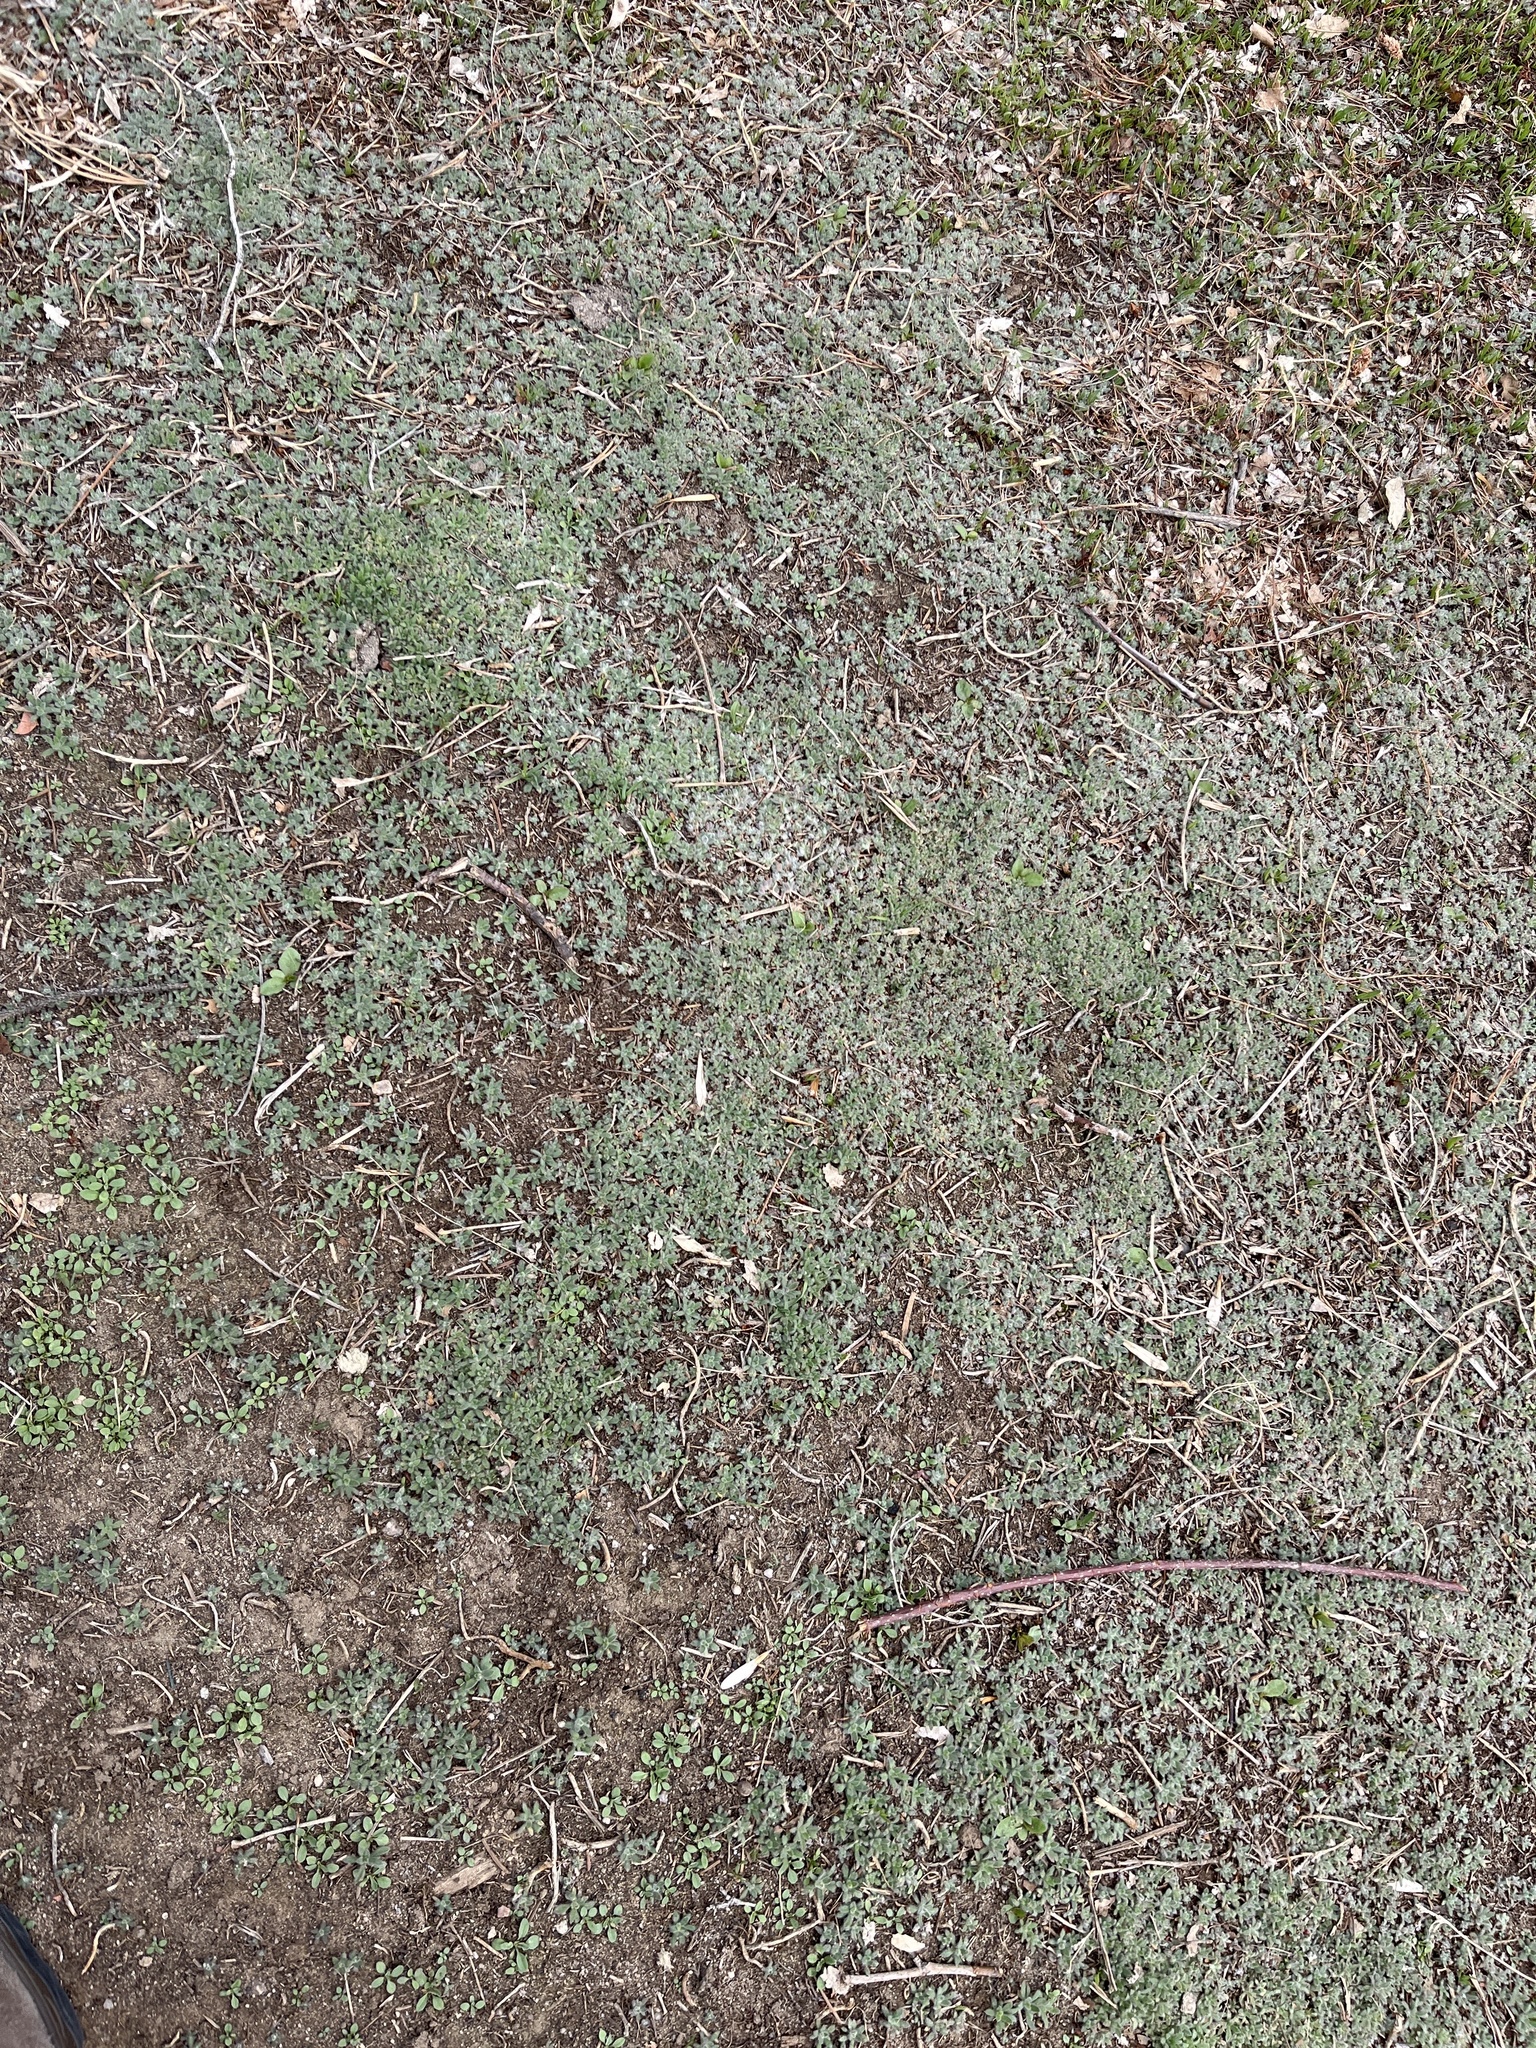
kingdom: Plantae
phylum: Tracheophyta
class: Magnoliopsida
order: Caryophyllales
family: Amaranthaceae
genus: Bassia
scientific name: Bassia scoparia
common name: Belvedere
